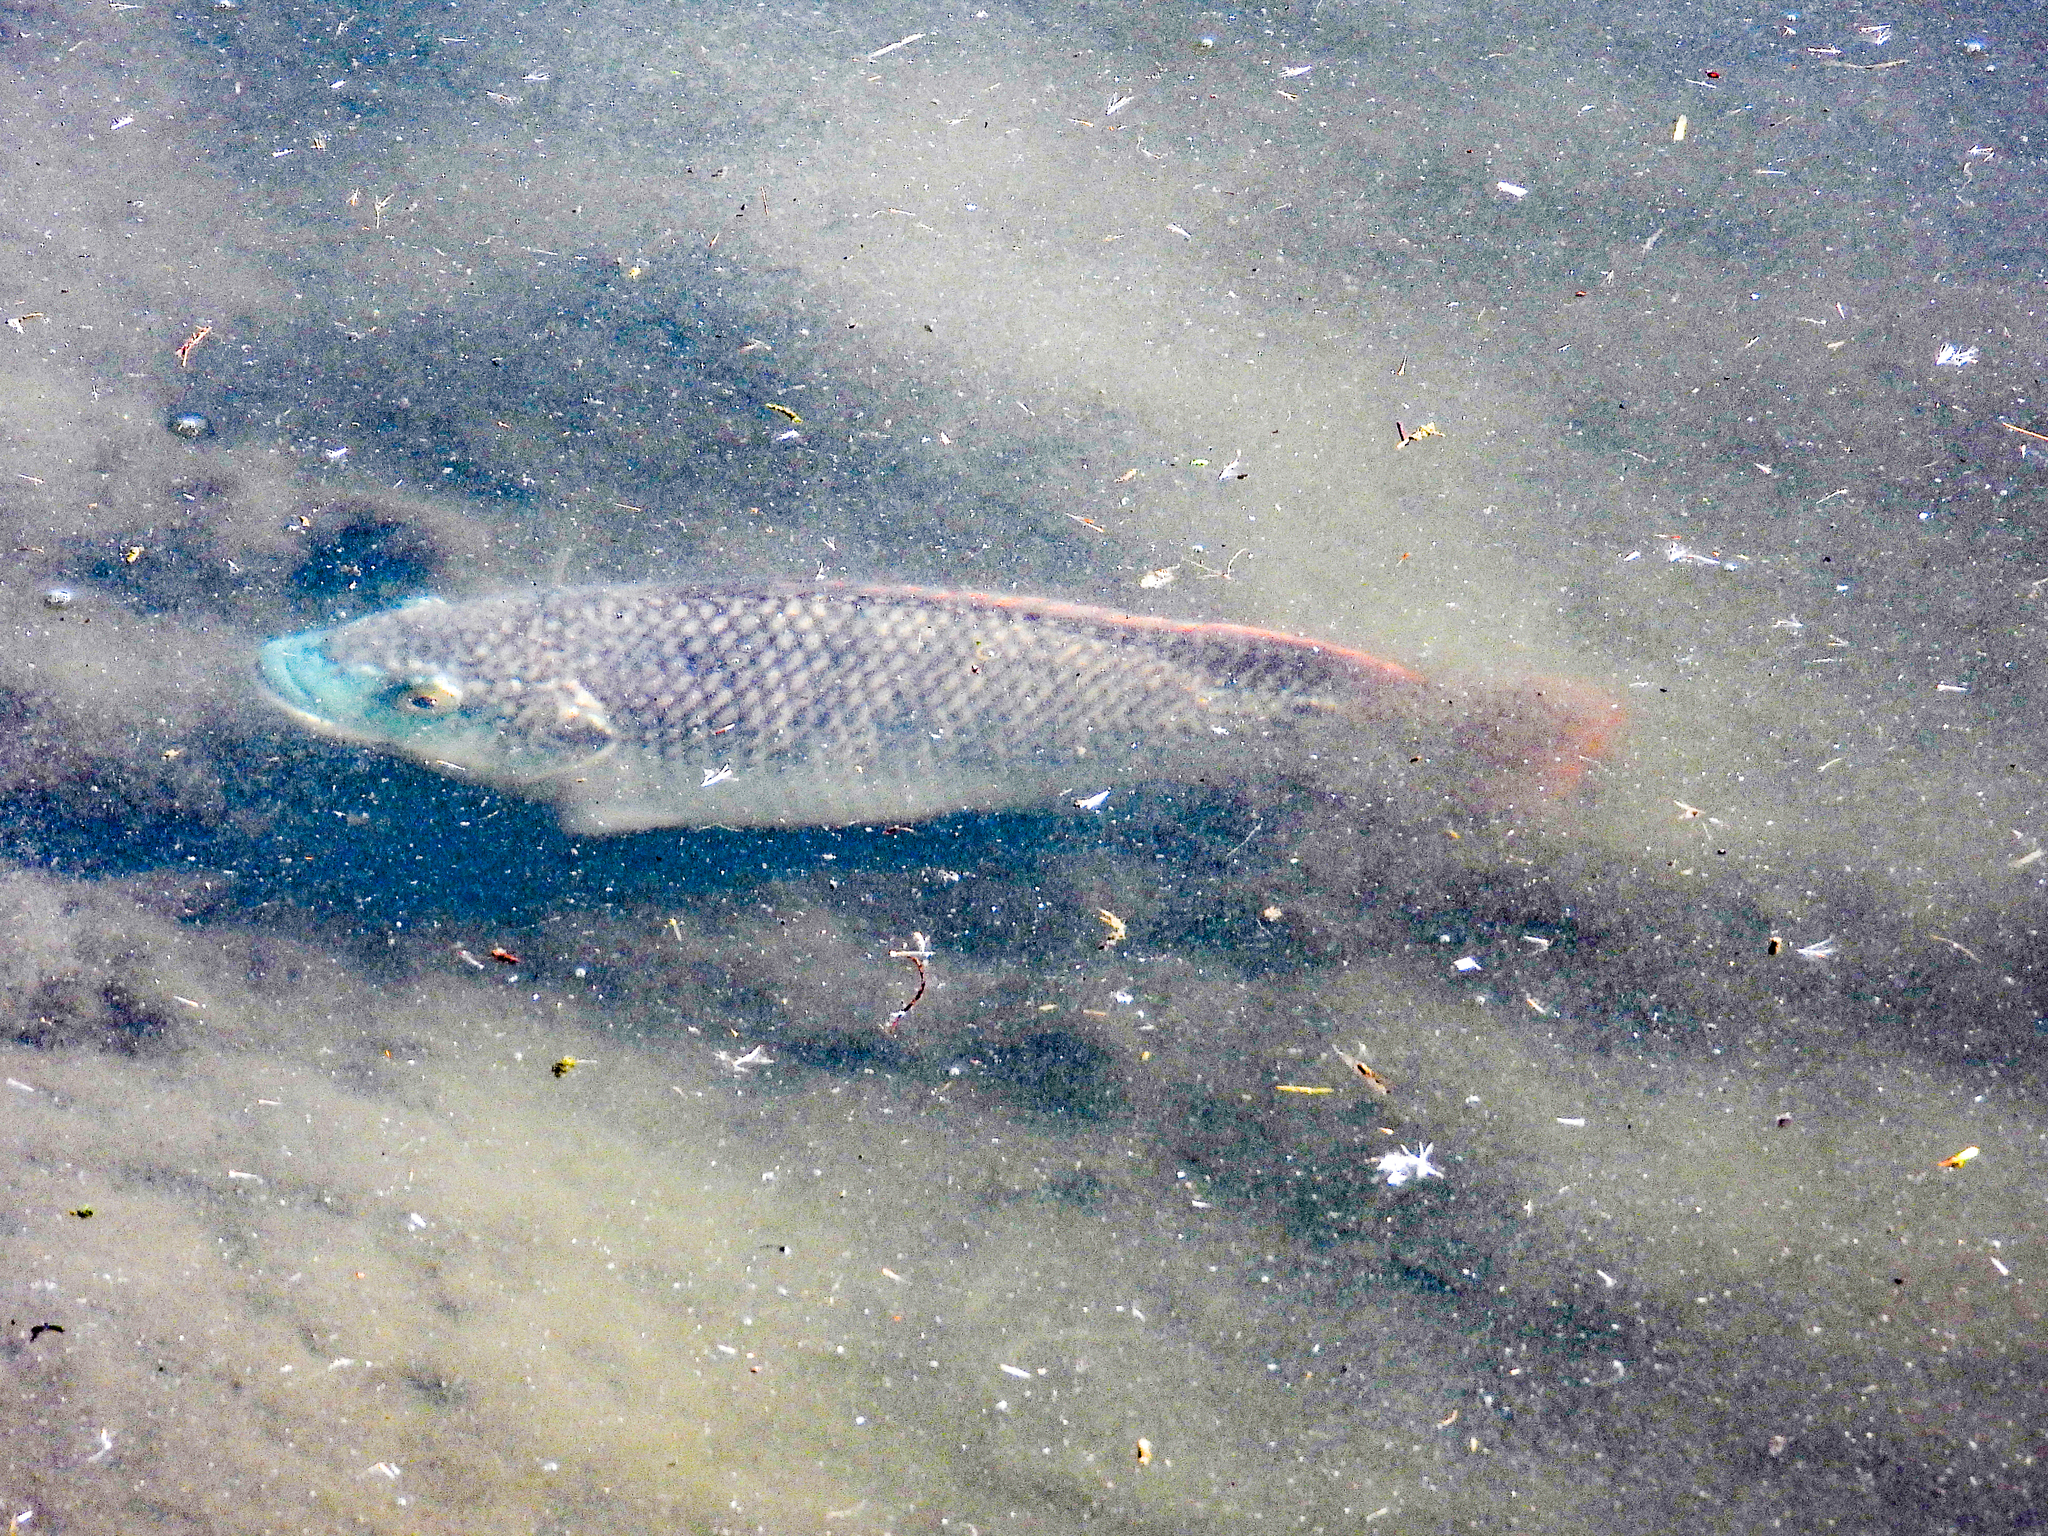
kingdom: Animalia
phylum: Chordata
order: Perciformes
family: Cichlidae
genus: Oreochromis
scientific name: Oreochromis aureus
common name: Blue tilapia
